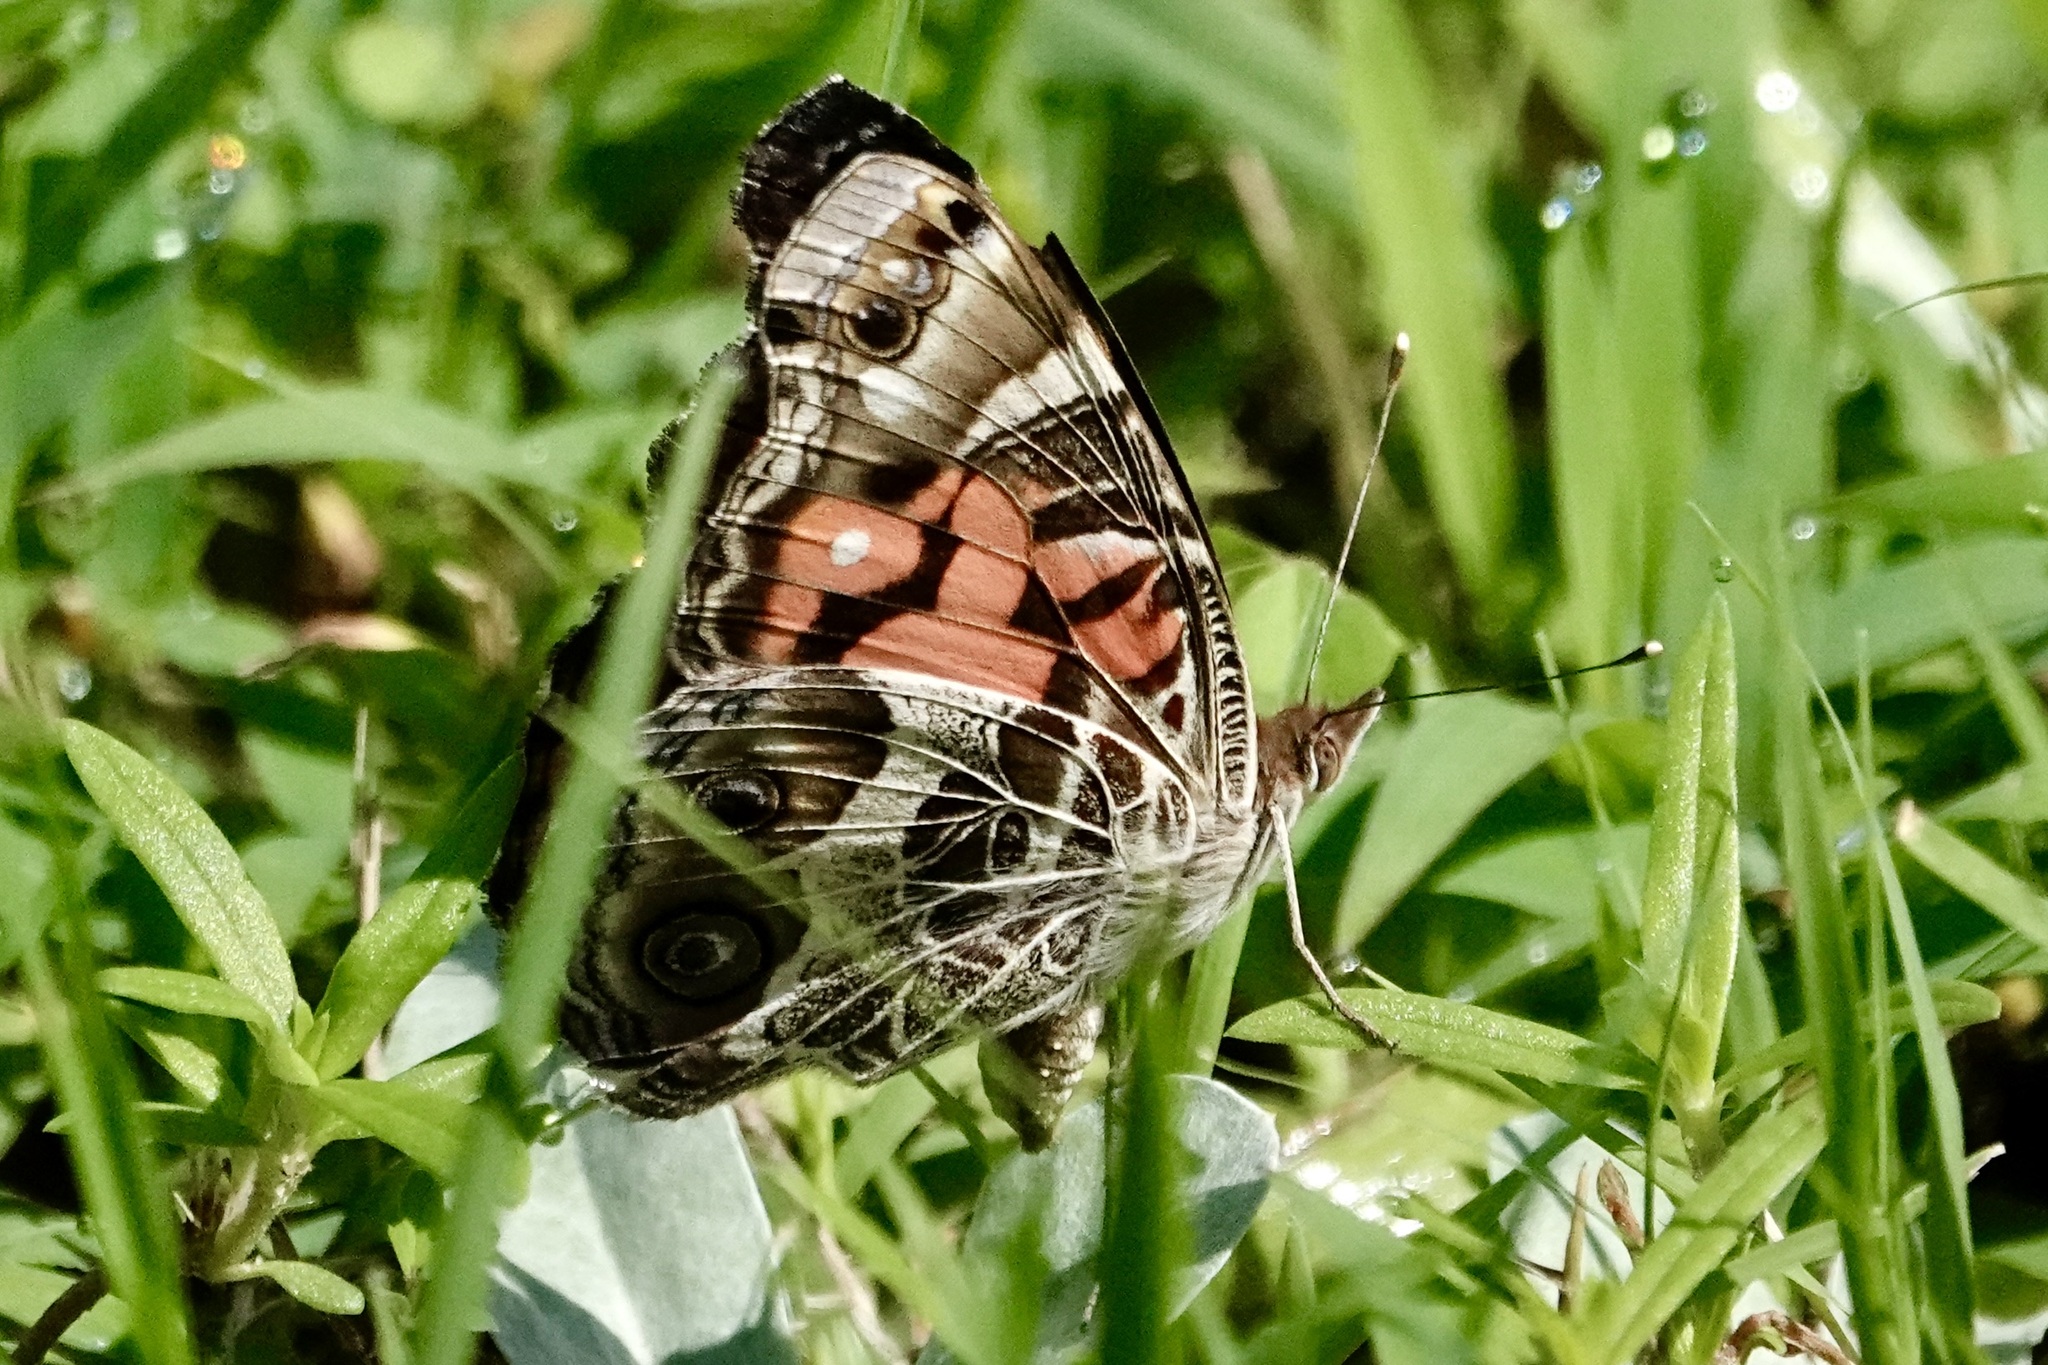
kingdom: Animalia
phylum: Arthropoda
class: Insecta
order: Lepidoptera
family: Nymphalidae
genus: Vanessa
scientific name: Vanessa virginiensis
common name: American lady
